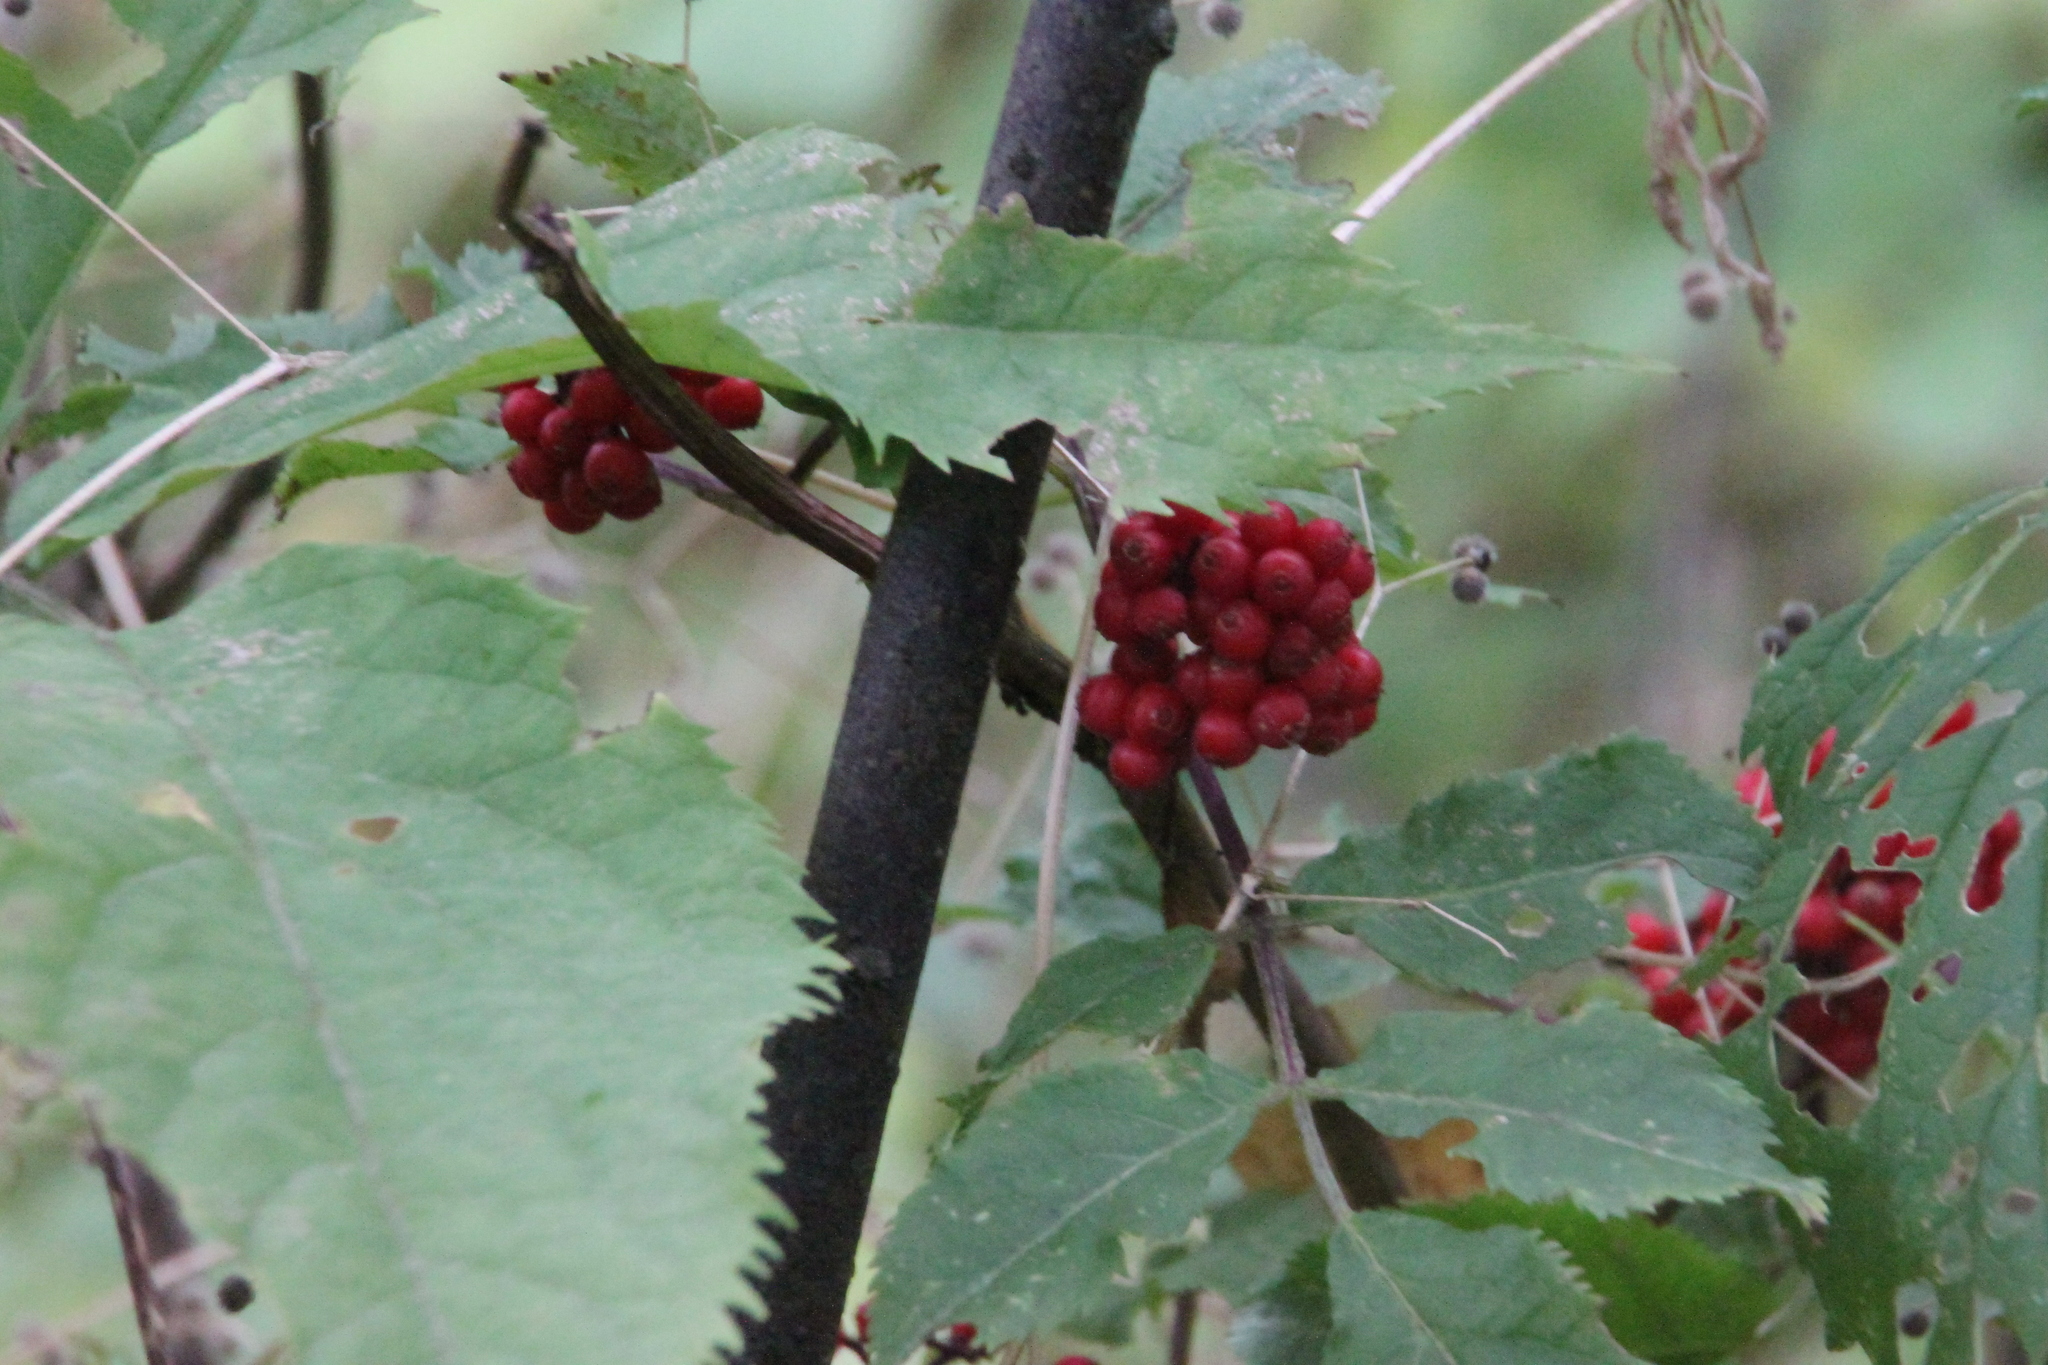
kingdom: Plantae
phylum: Tracheophyta
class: Magnoliopsida
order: Dipsacales
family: Viburnaceae
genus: Sambucus
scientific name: Sambucus racemosa
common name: Red-berried elder
